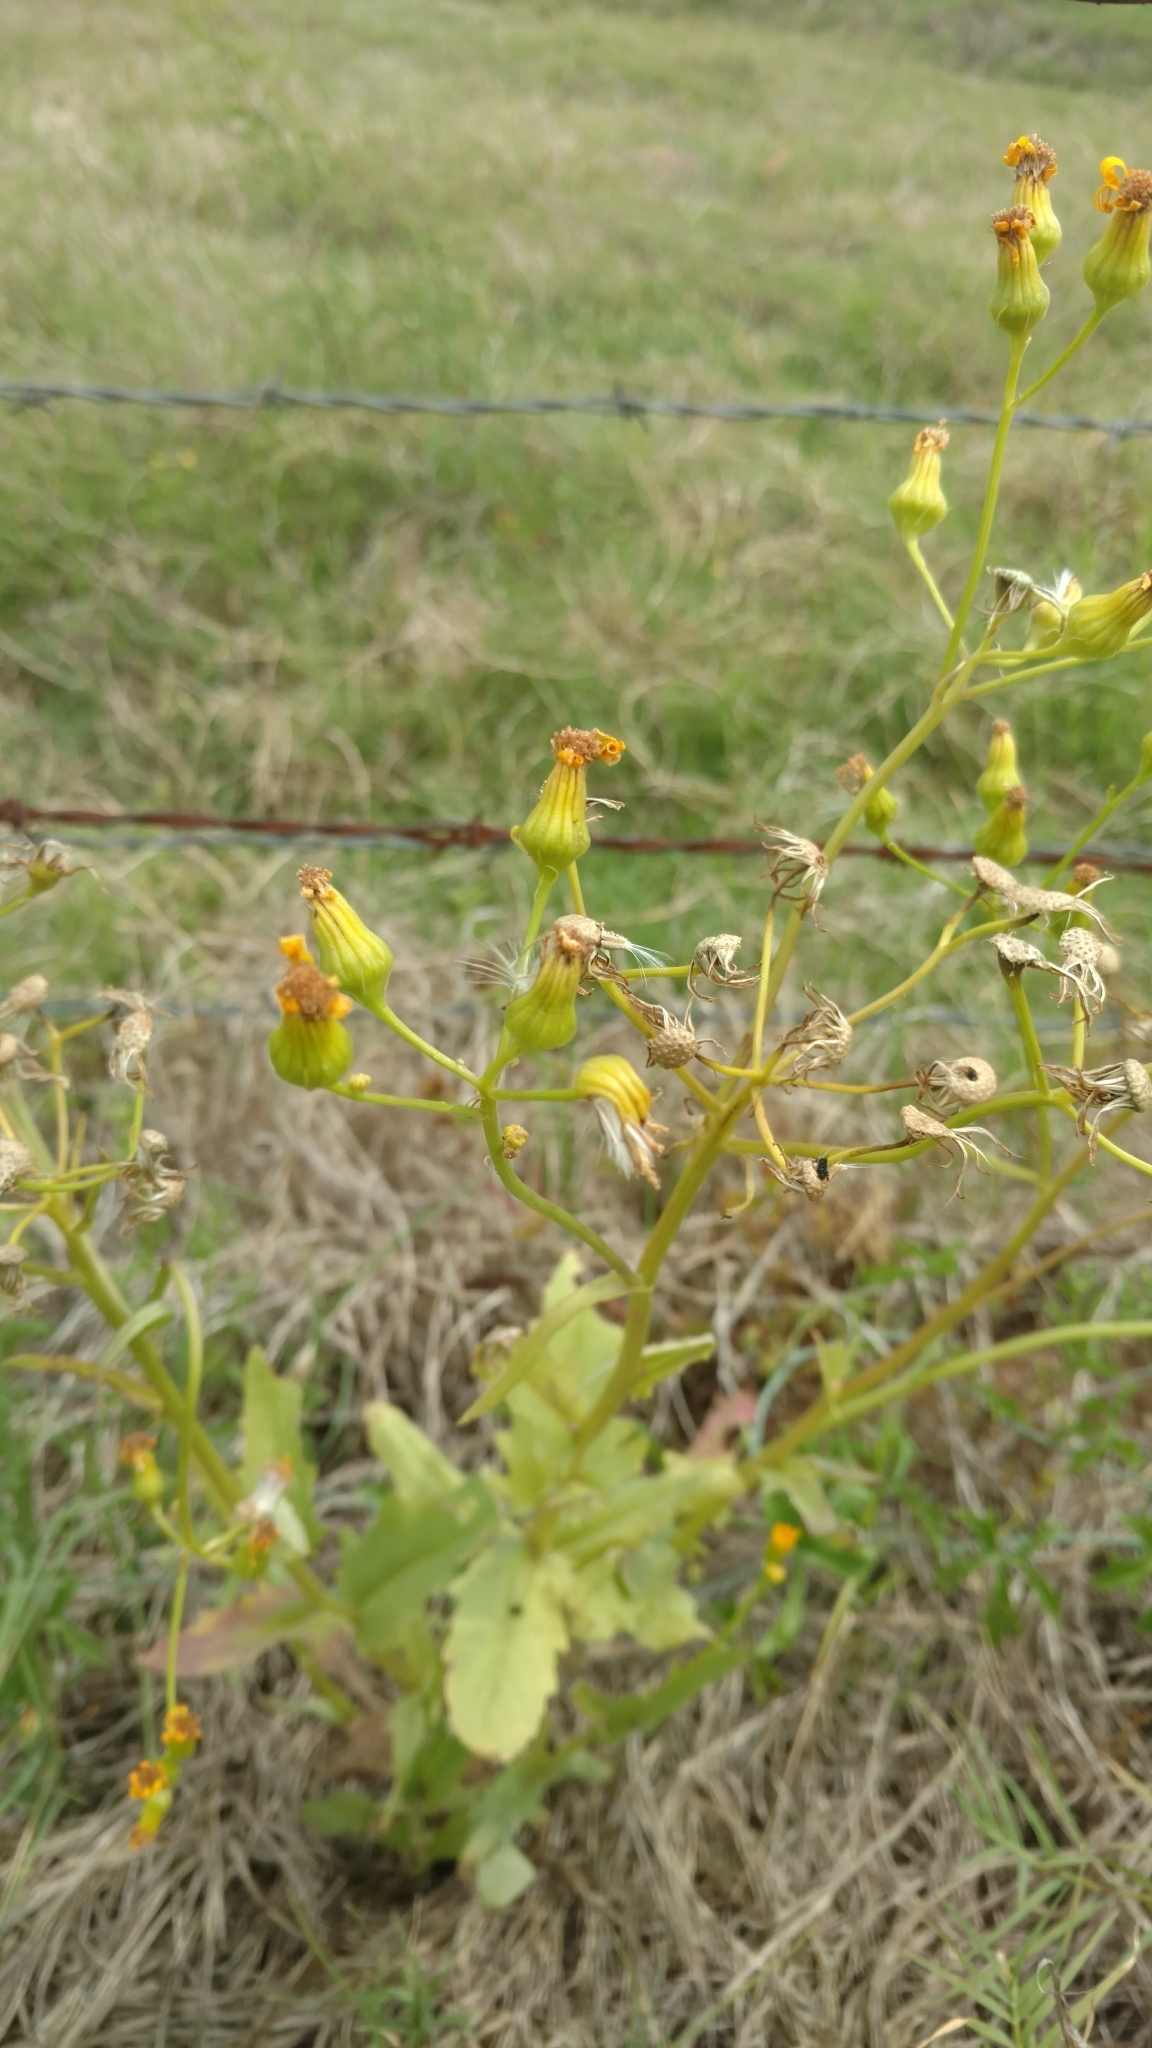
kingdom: Plantae
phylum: Tracheophyta
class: Magnoliopsida
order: Asterales
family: Asteraceae
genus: Senecio
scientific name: Senecio ampullaceus
